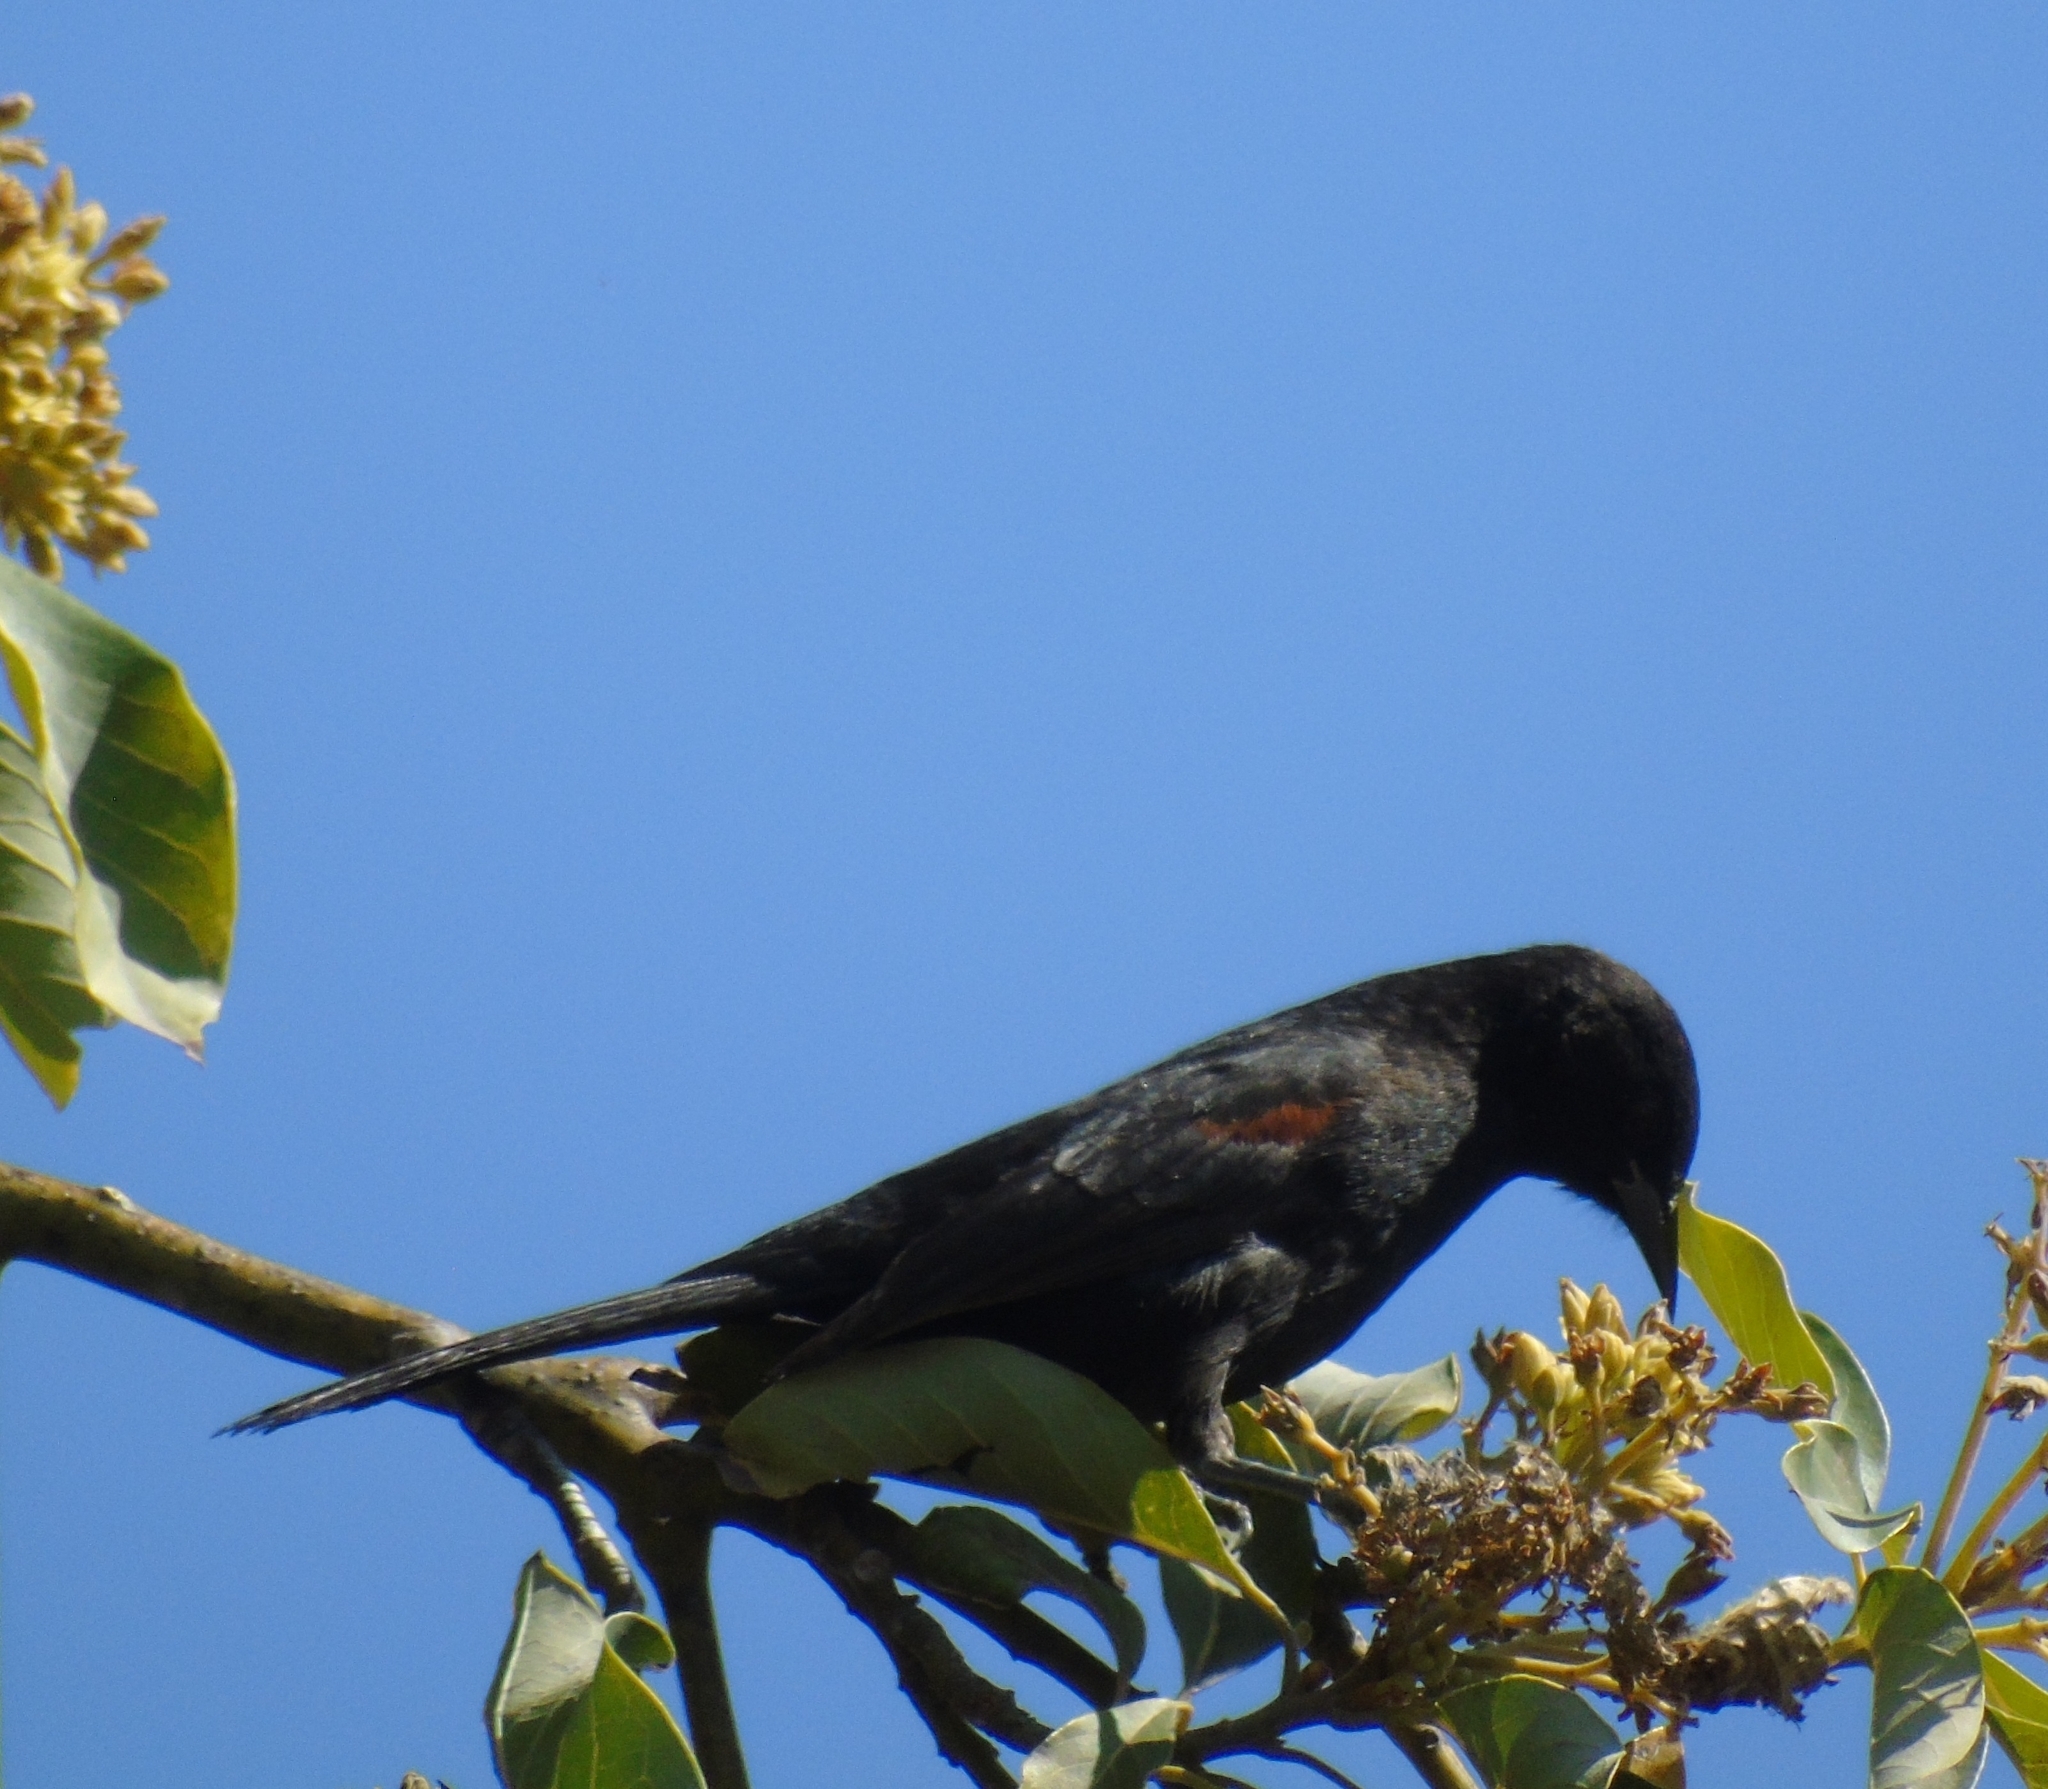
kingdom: Animalia
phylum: Chordata
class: Aves
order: Passeriformes
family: Icteridae
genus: Icterus
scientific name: Icterus cayanensis
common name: Epaulet oriole
